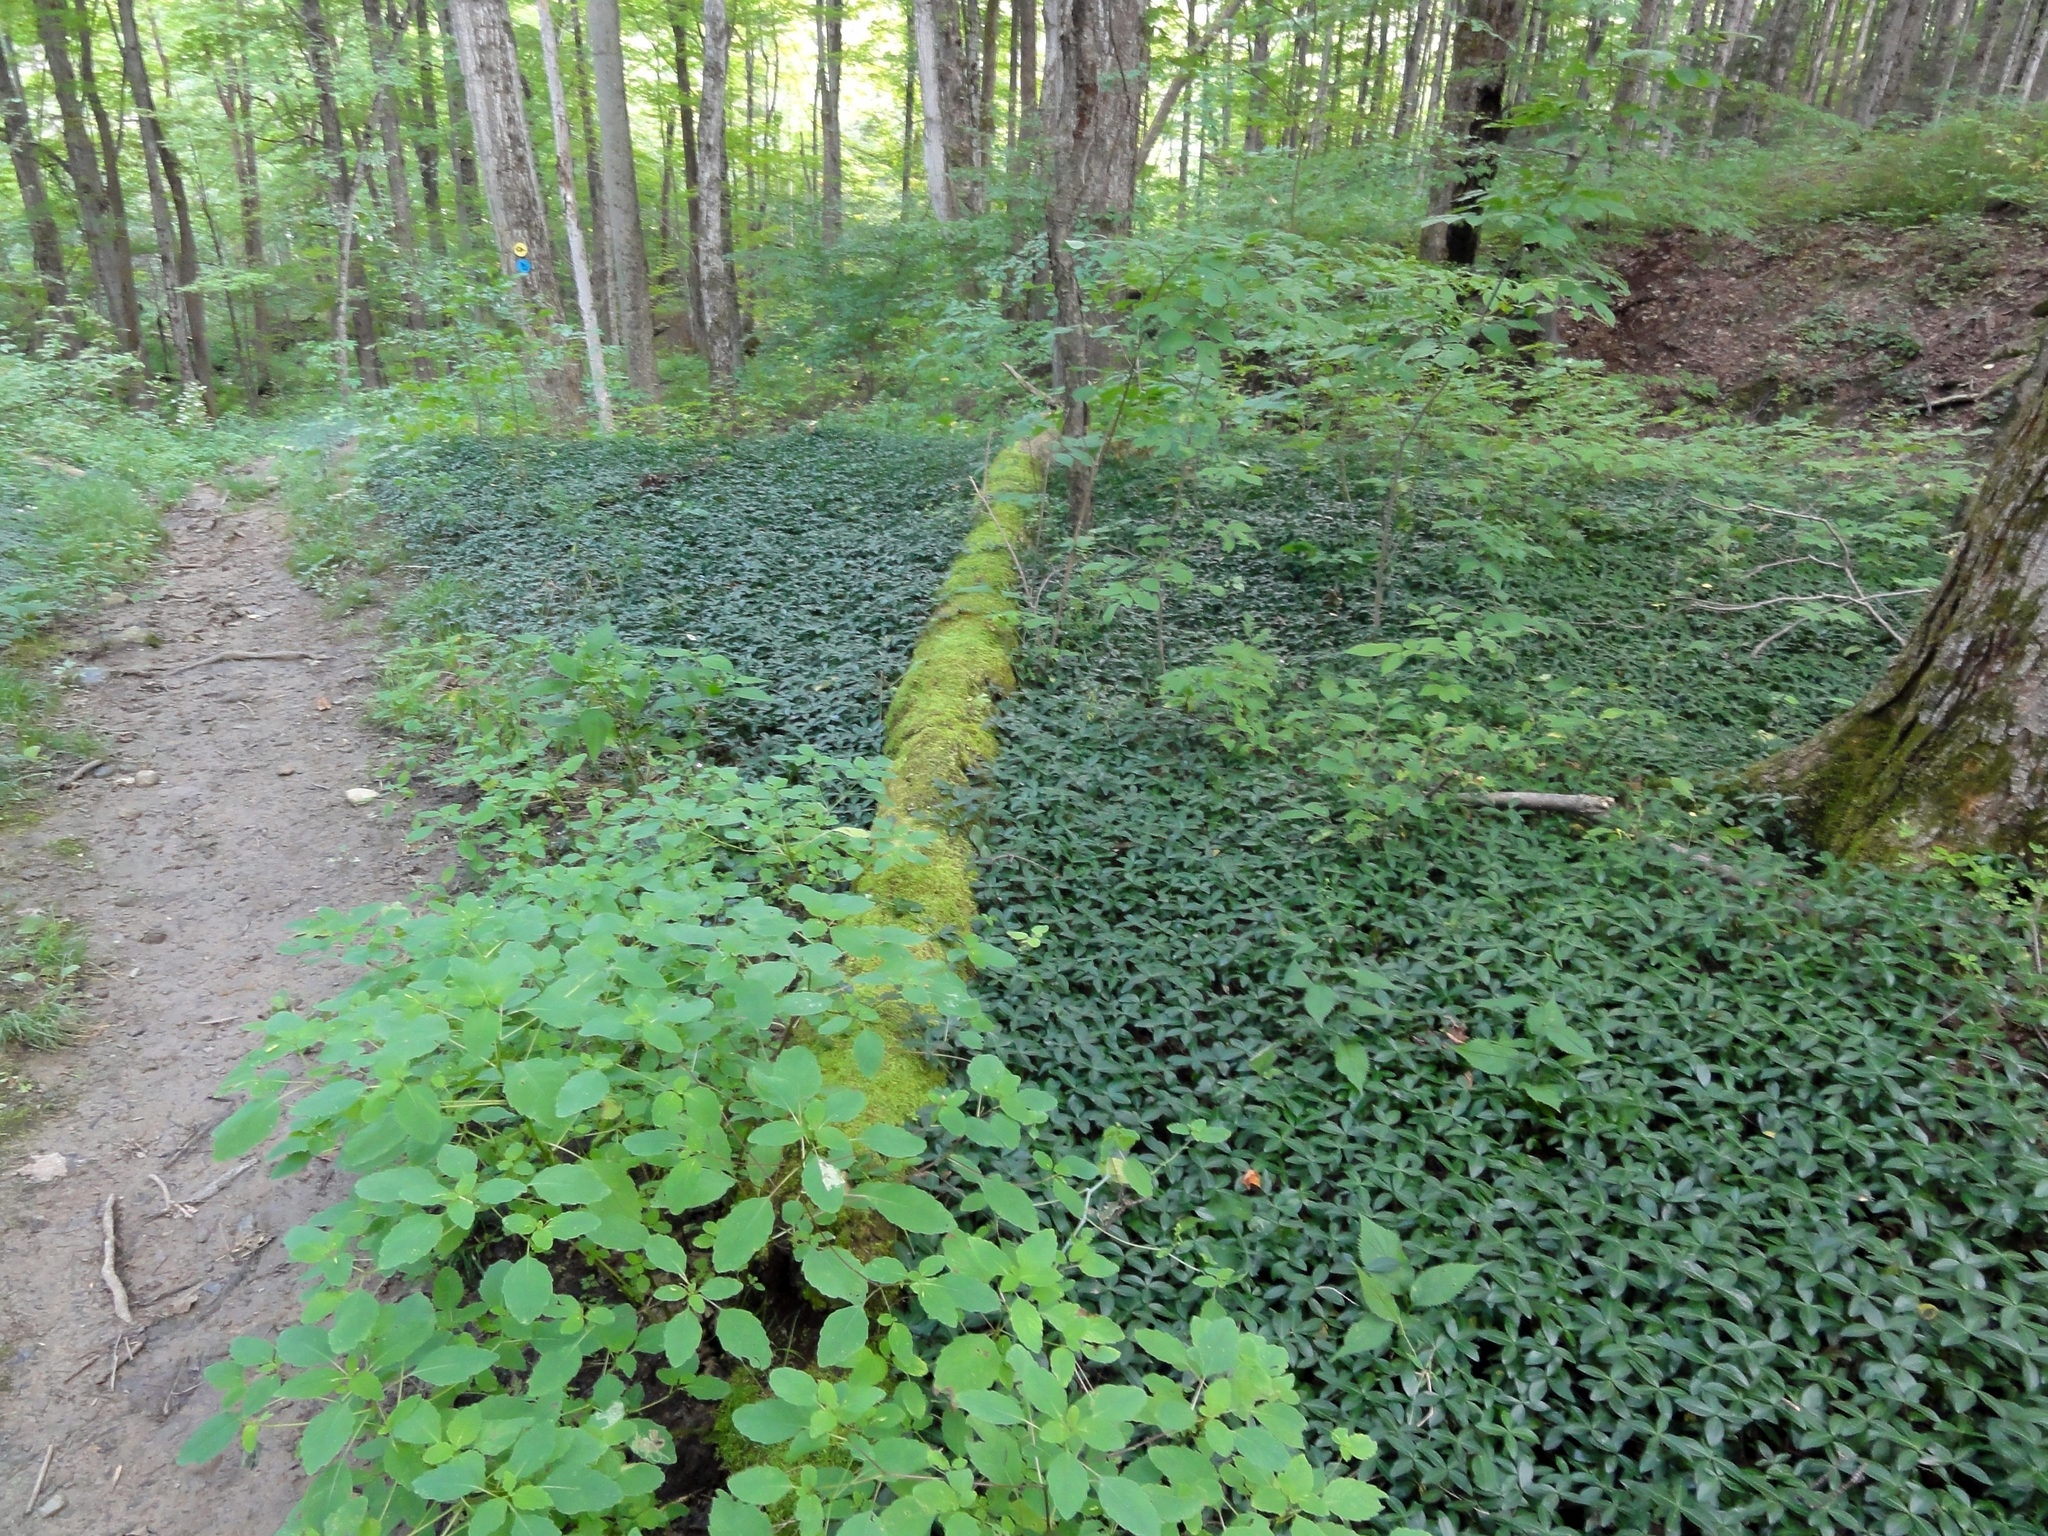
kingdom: Plantae
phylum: Tracheophyta
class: Magnoliopsida
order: Gentianales
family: Apocynaceae
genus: Vinca
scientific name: Vinca minor
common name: Lesser periwinkle
